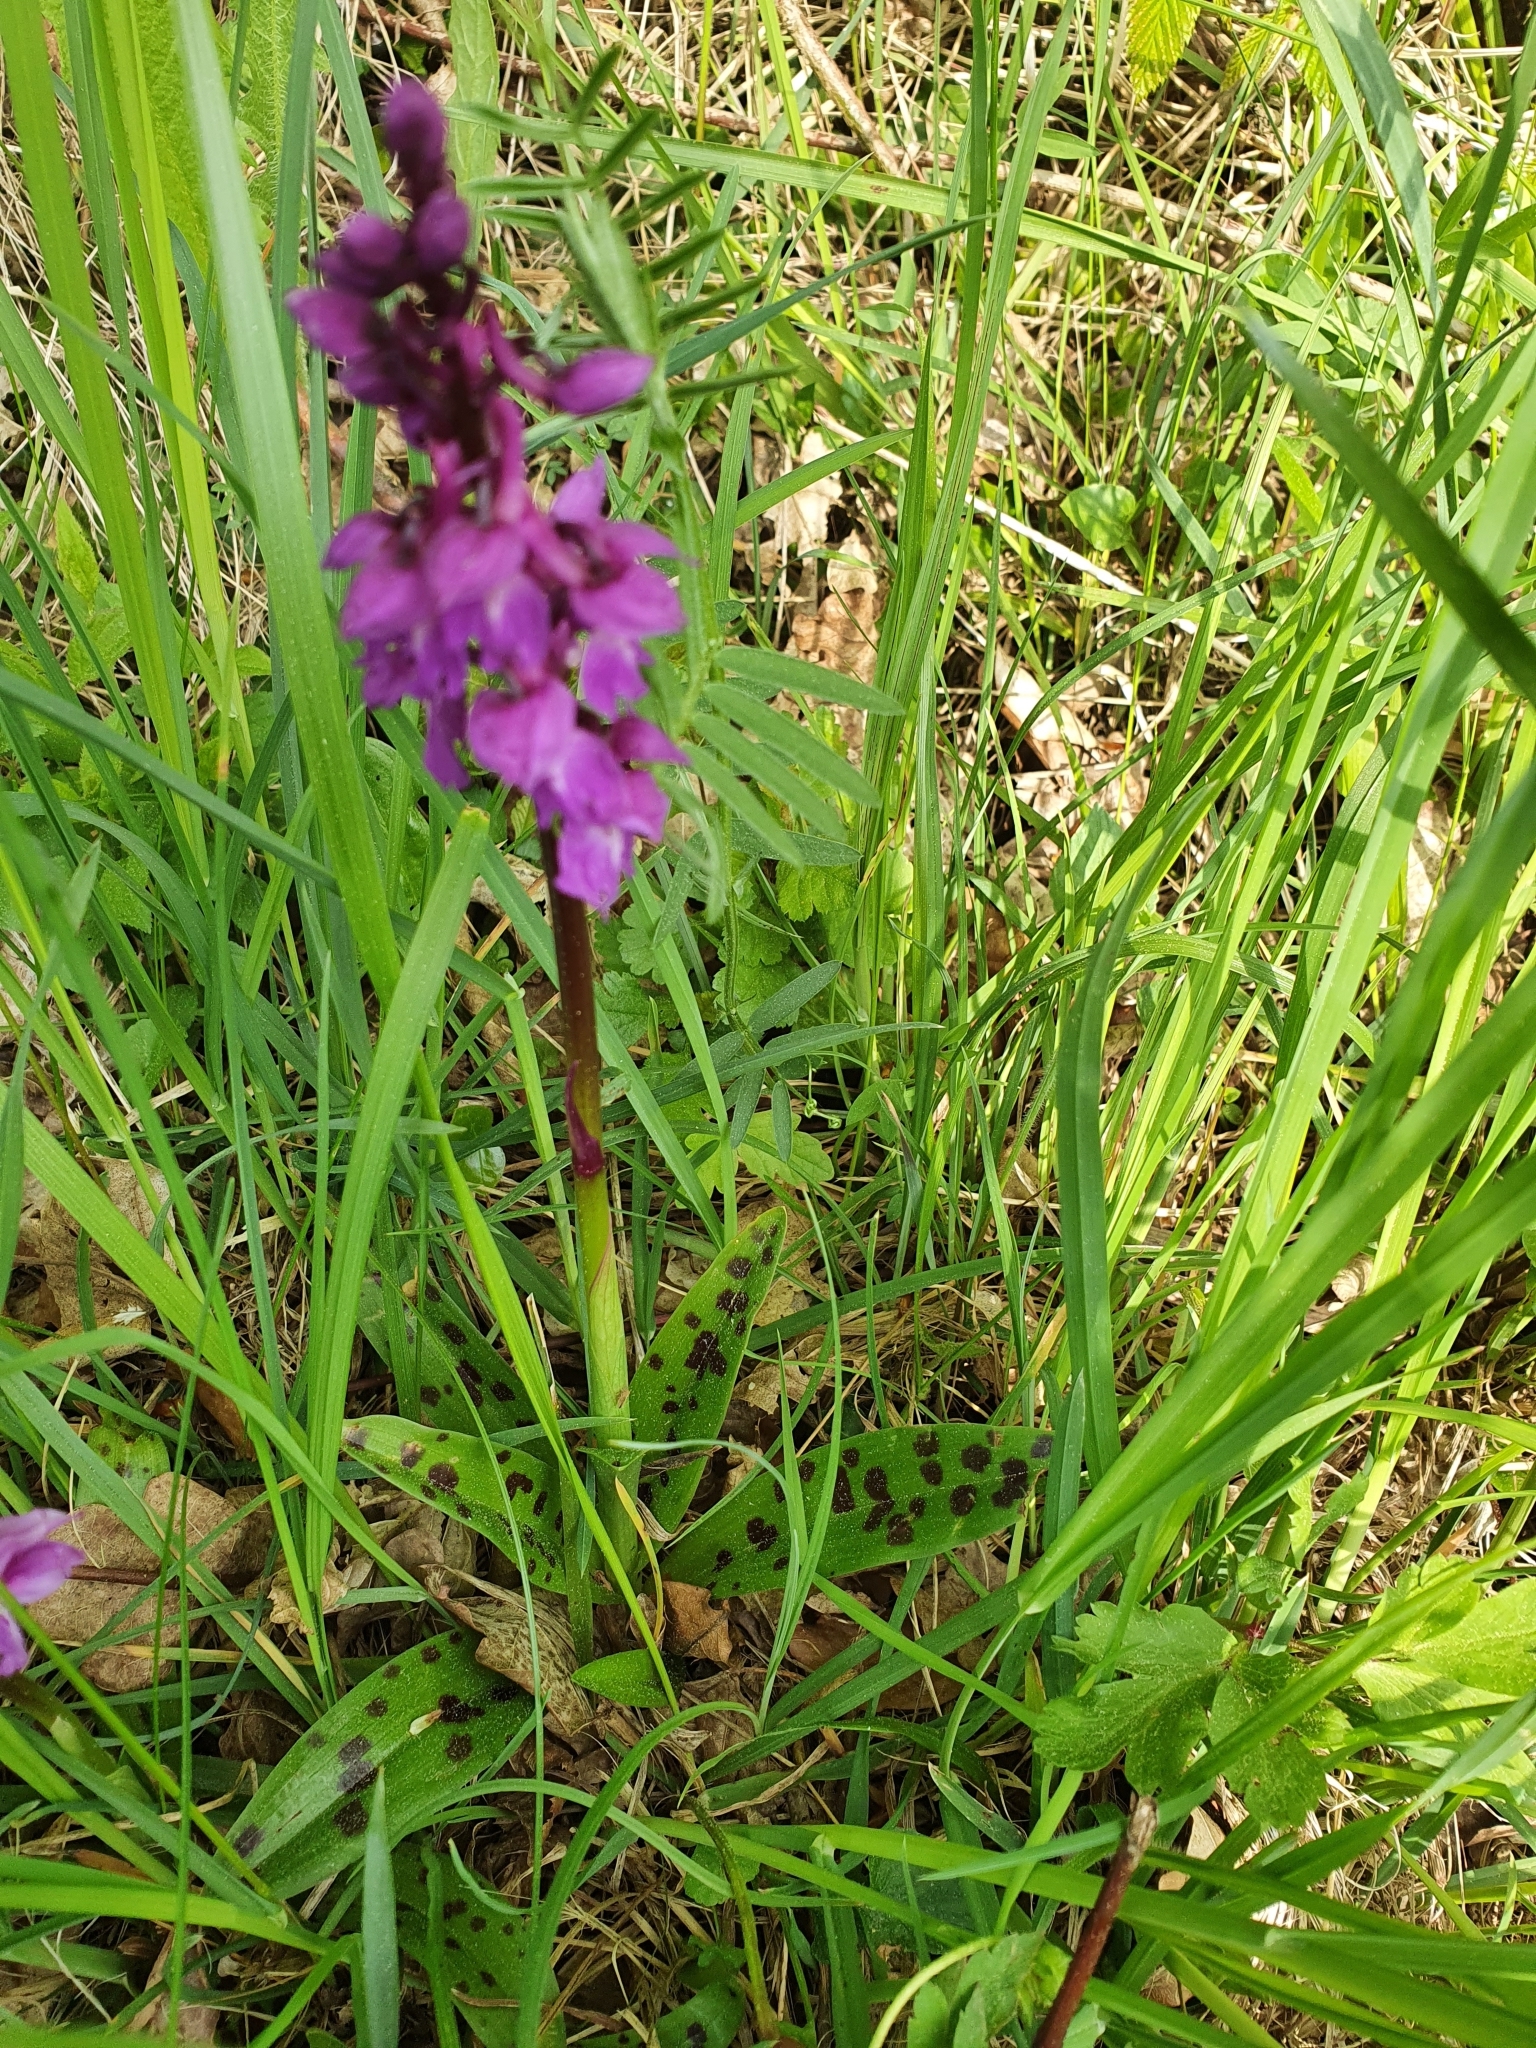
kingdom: Plantae
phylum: Tracheophyta
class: Liliopsida
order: Asparagales
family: Orchidaceae
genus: Orchis
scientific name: Orchis mascula
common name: Early-purple orchid
